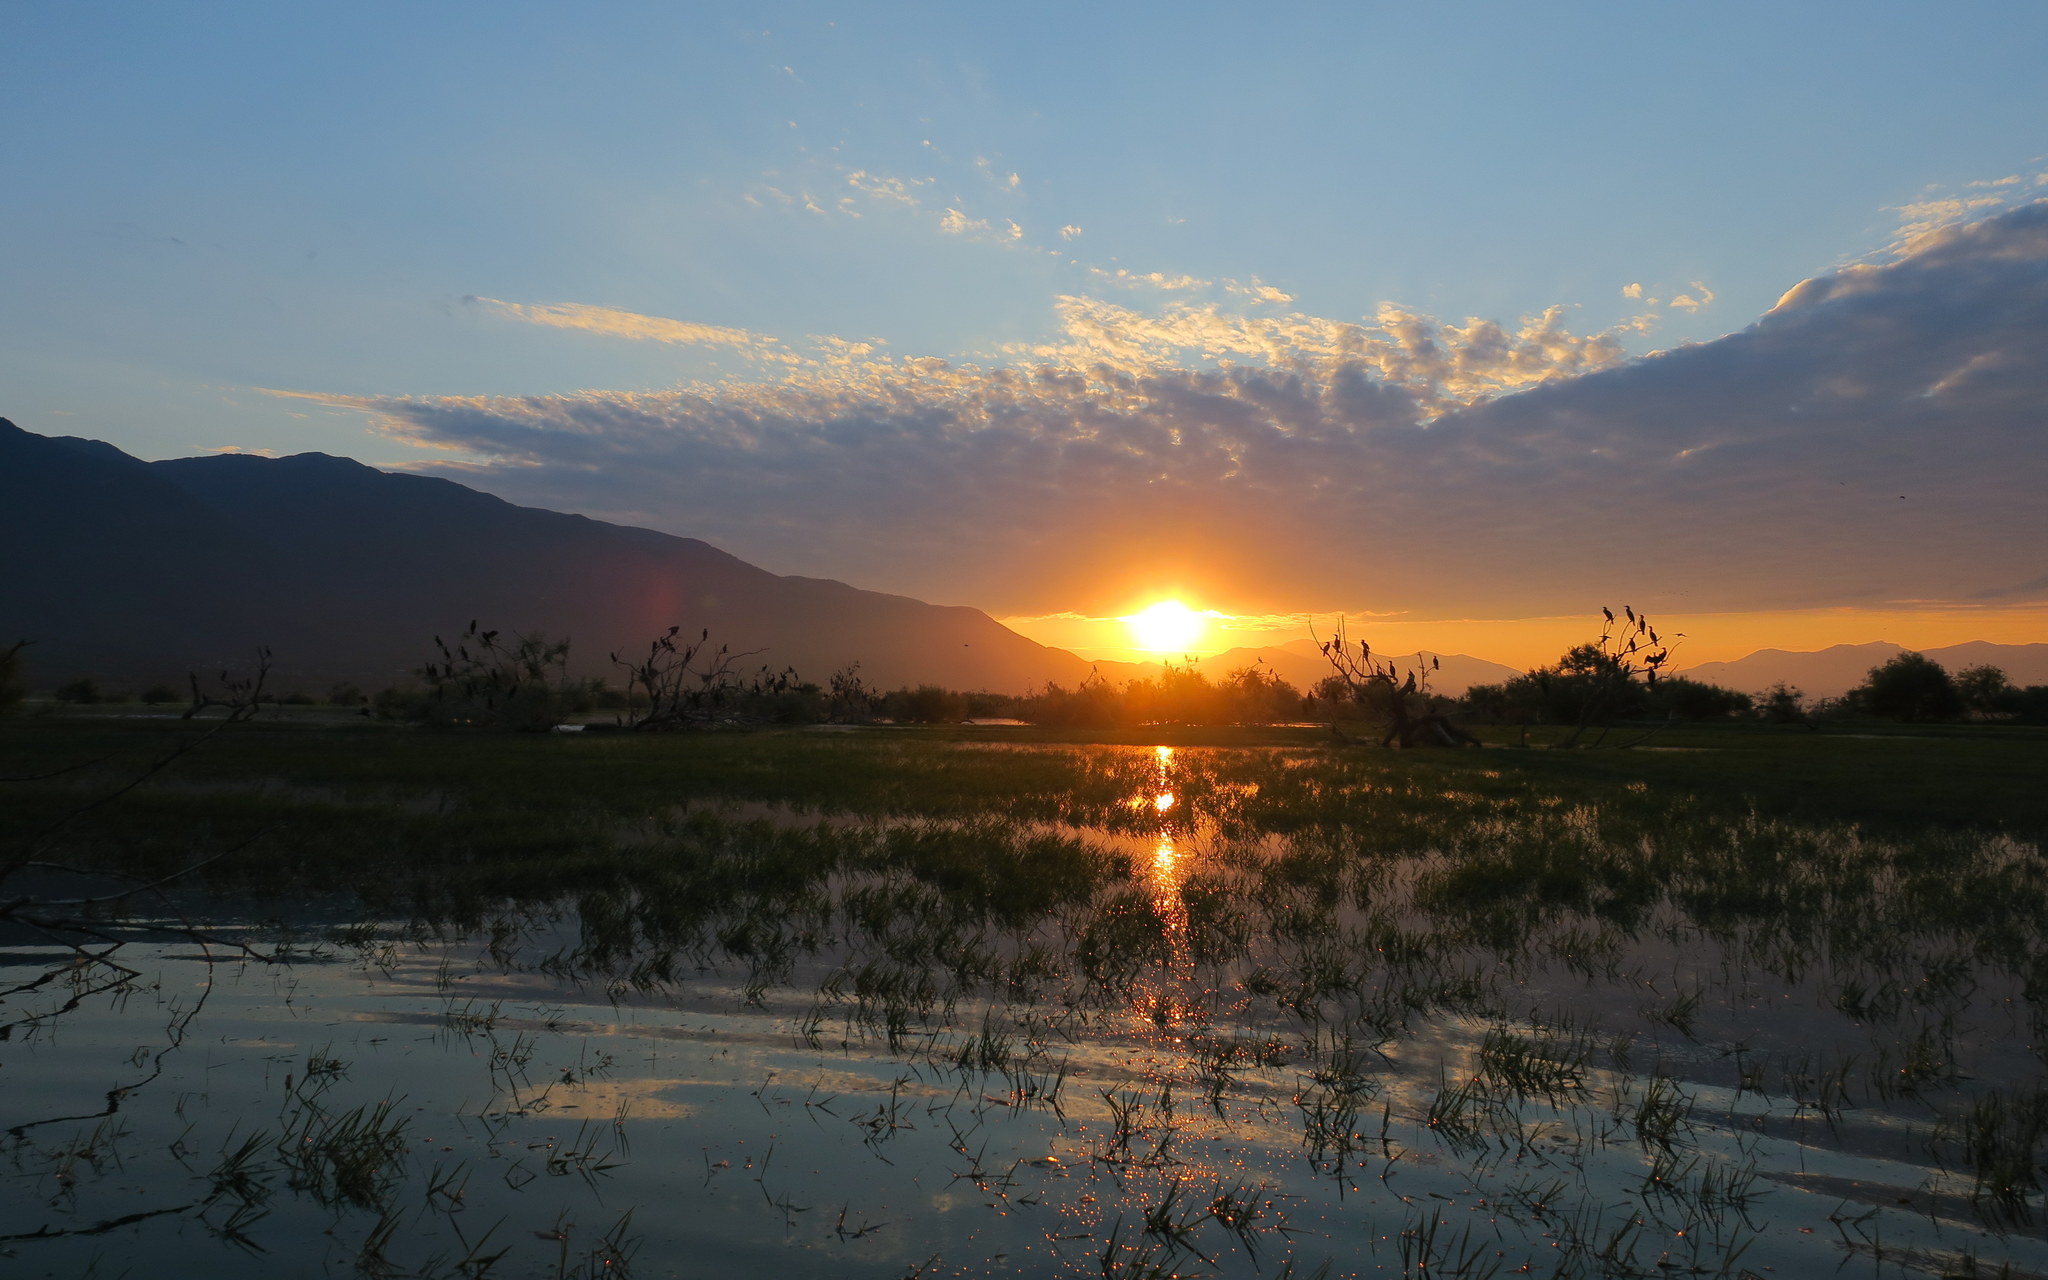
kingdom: Animalia
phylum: Chordata
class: Aves
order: Suliformes
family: Phalacrocoracidae
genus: Phalacrocorax
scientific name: Phalacrocorax carbo
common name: Great cormorant
